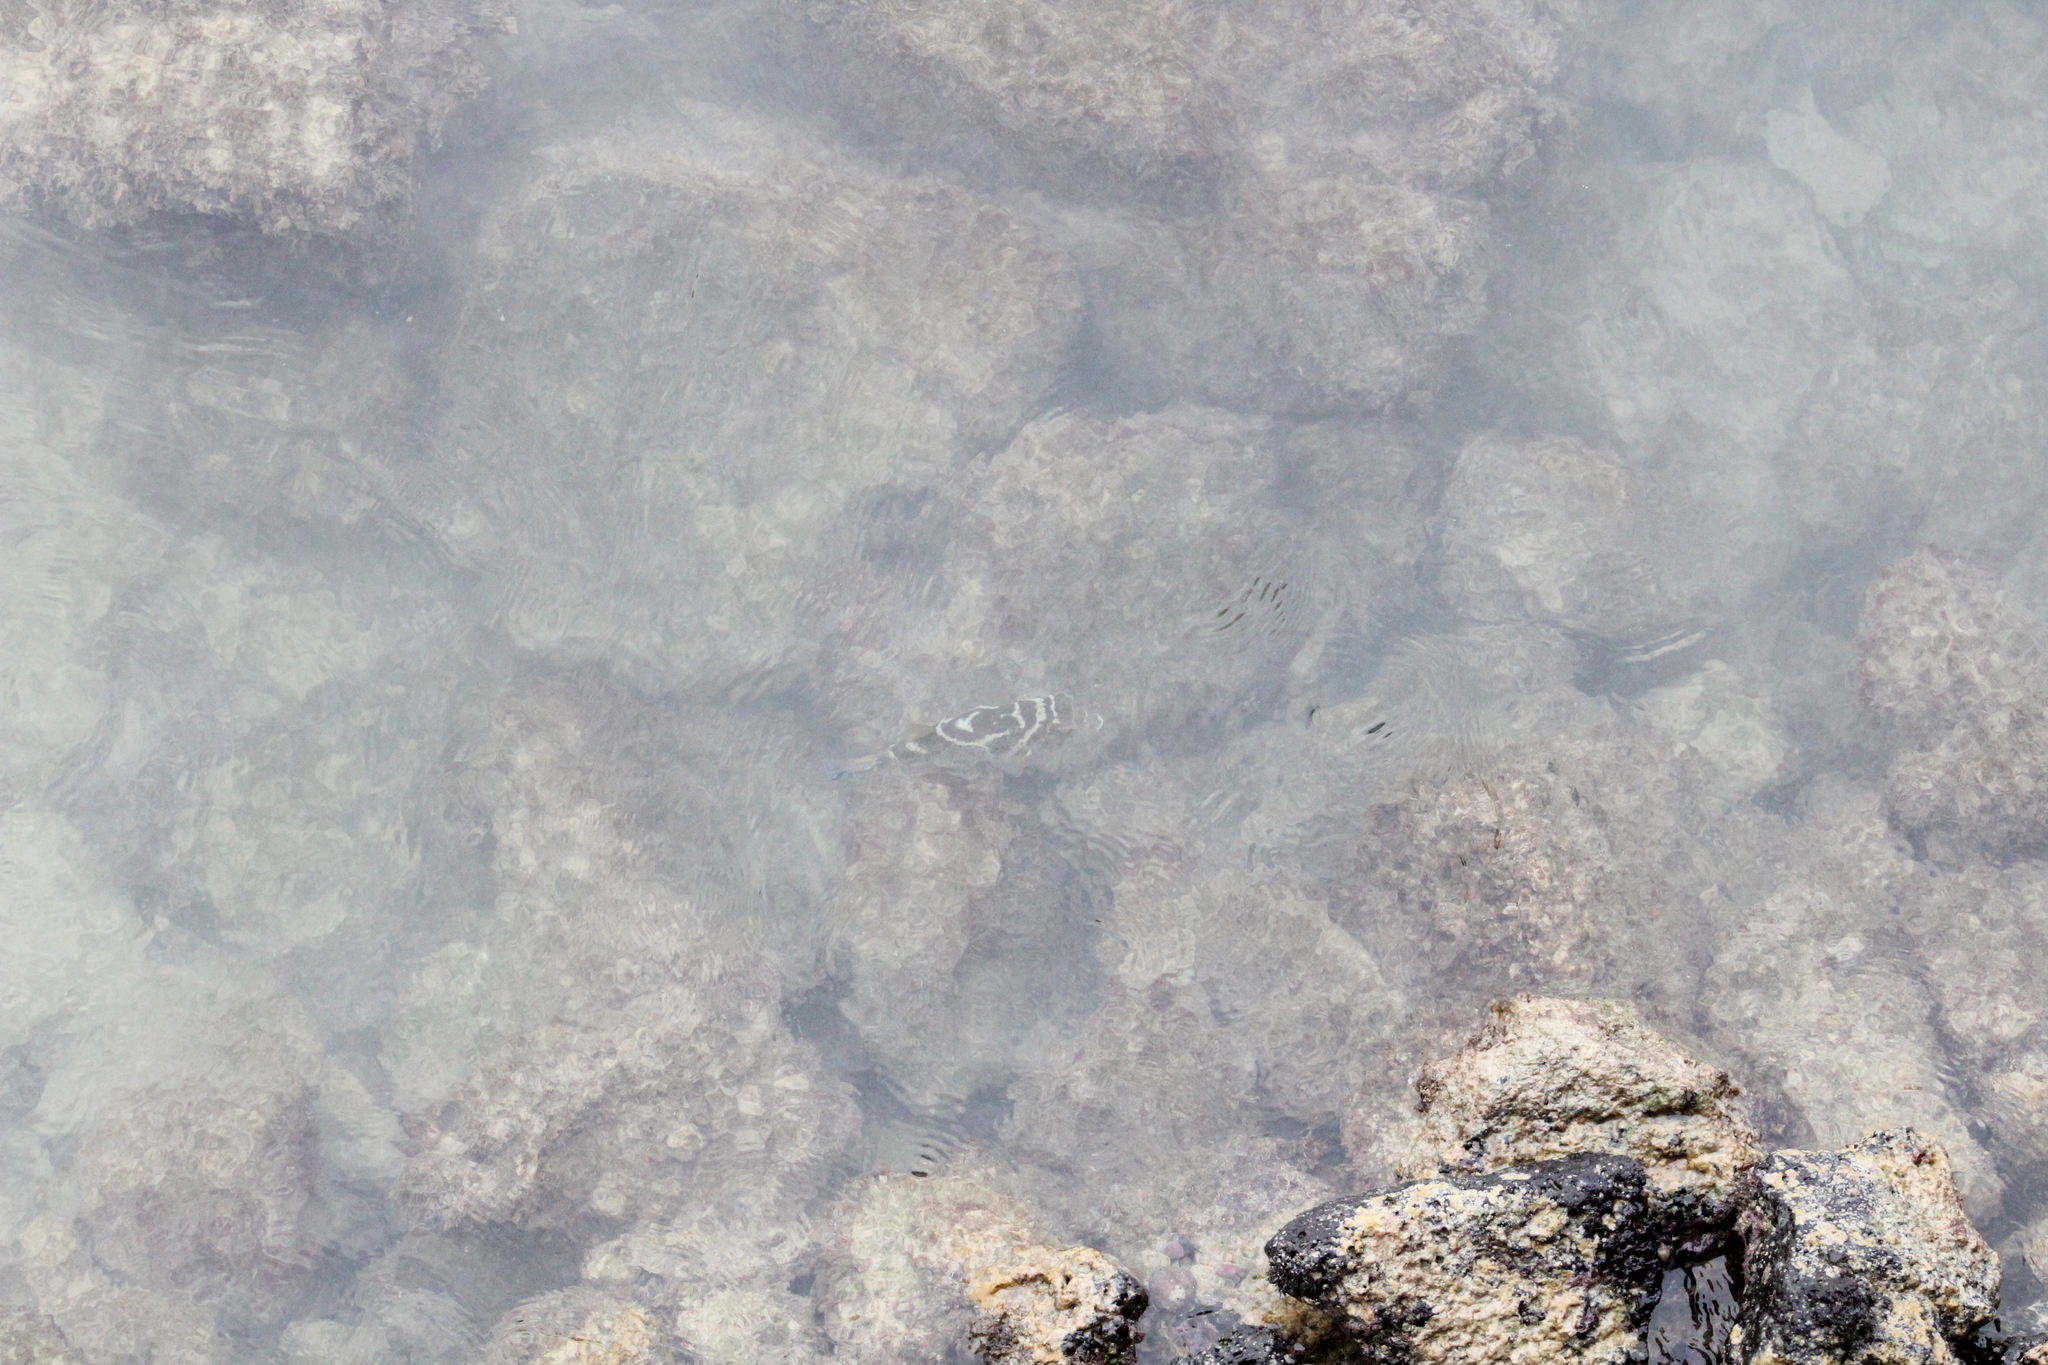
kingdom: Animalia
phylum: Chordata
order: Tetraodontiformes
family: Tetraodontidae
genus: Sphoeroides
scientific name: Sphoeroides annulatus
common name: Bullseye puffer
